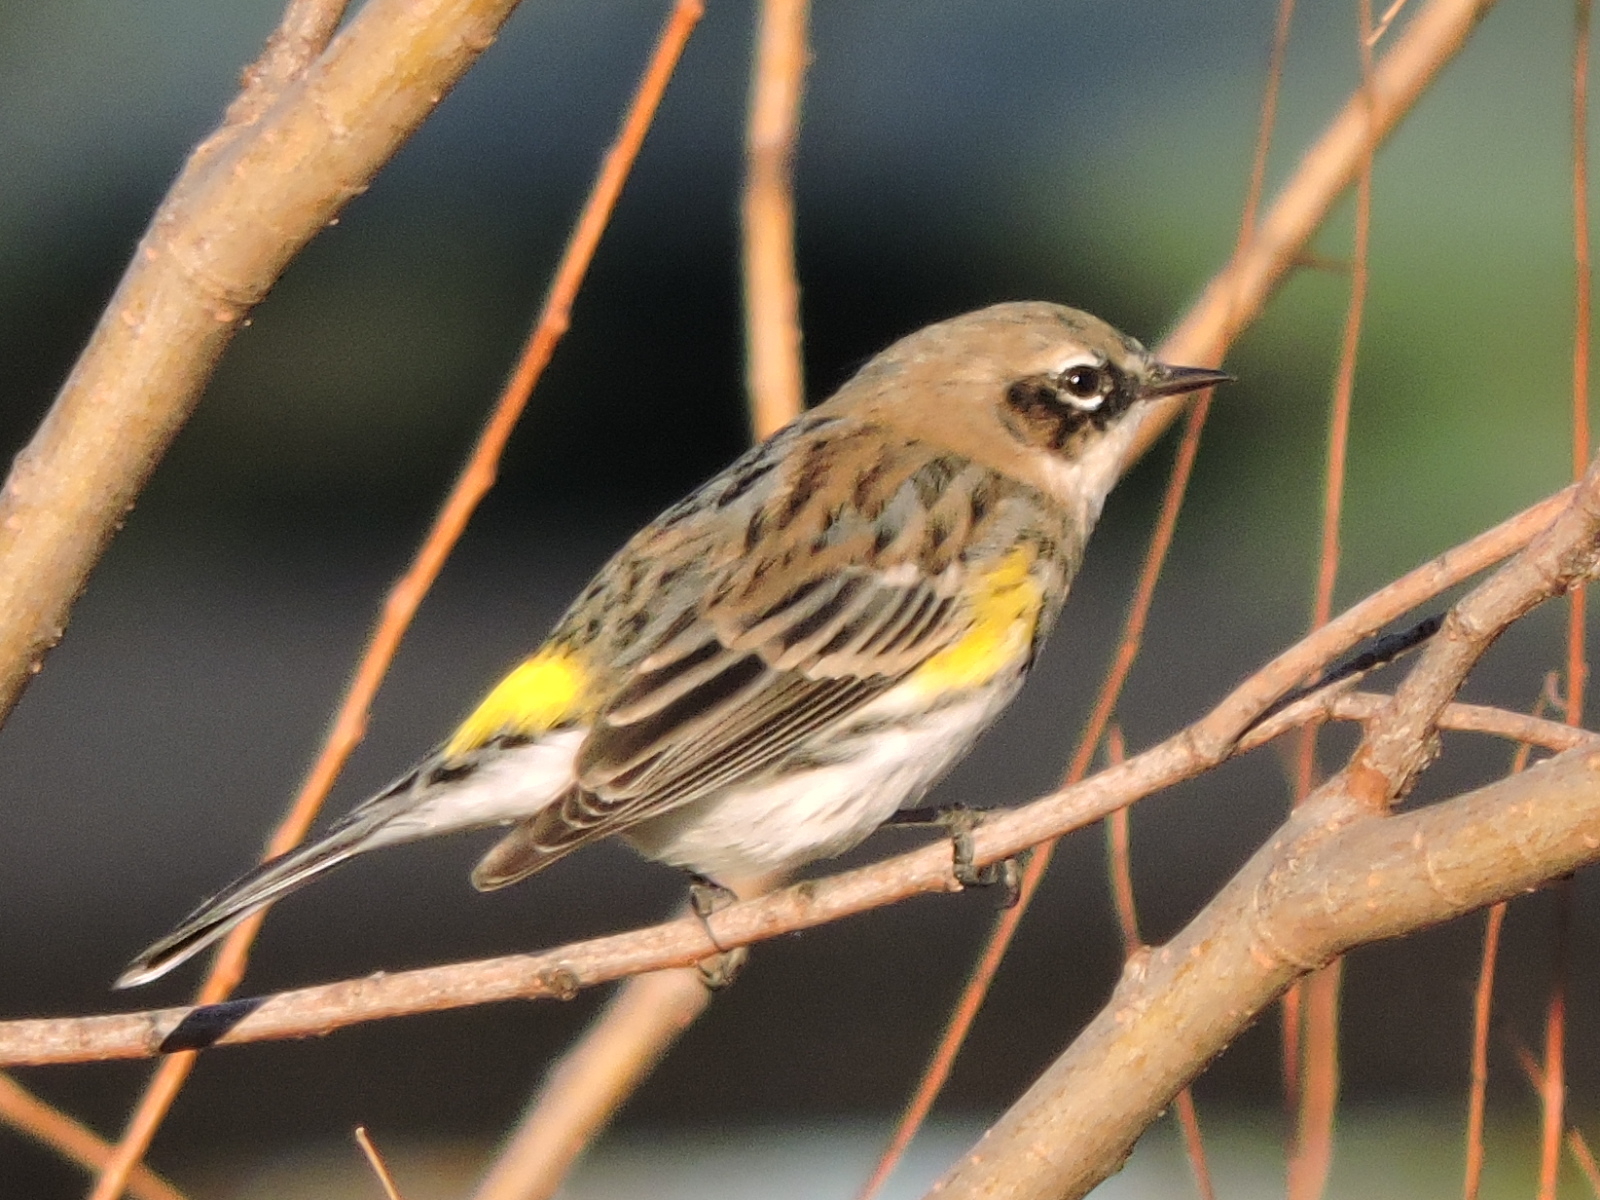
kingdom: Animalia
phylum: Chordata
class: Aves
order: Passeriformes
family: Parulidae
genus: Setophaga
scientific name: Setophaga coronata
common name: Myrtle warbler
